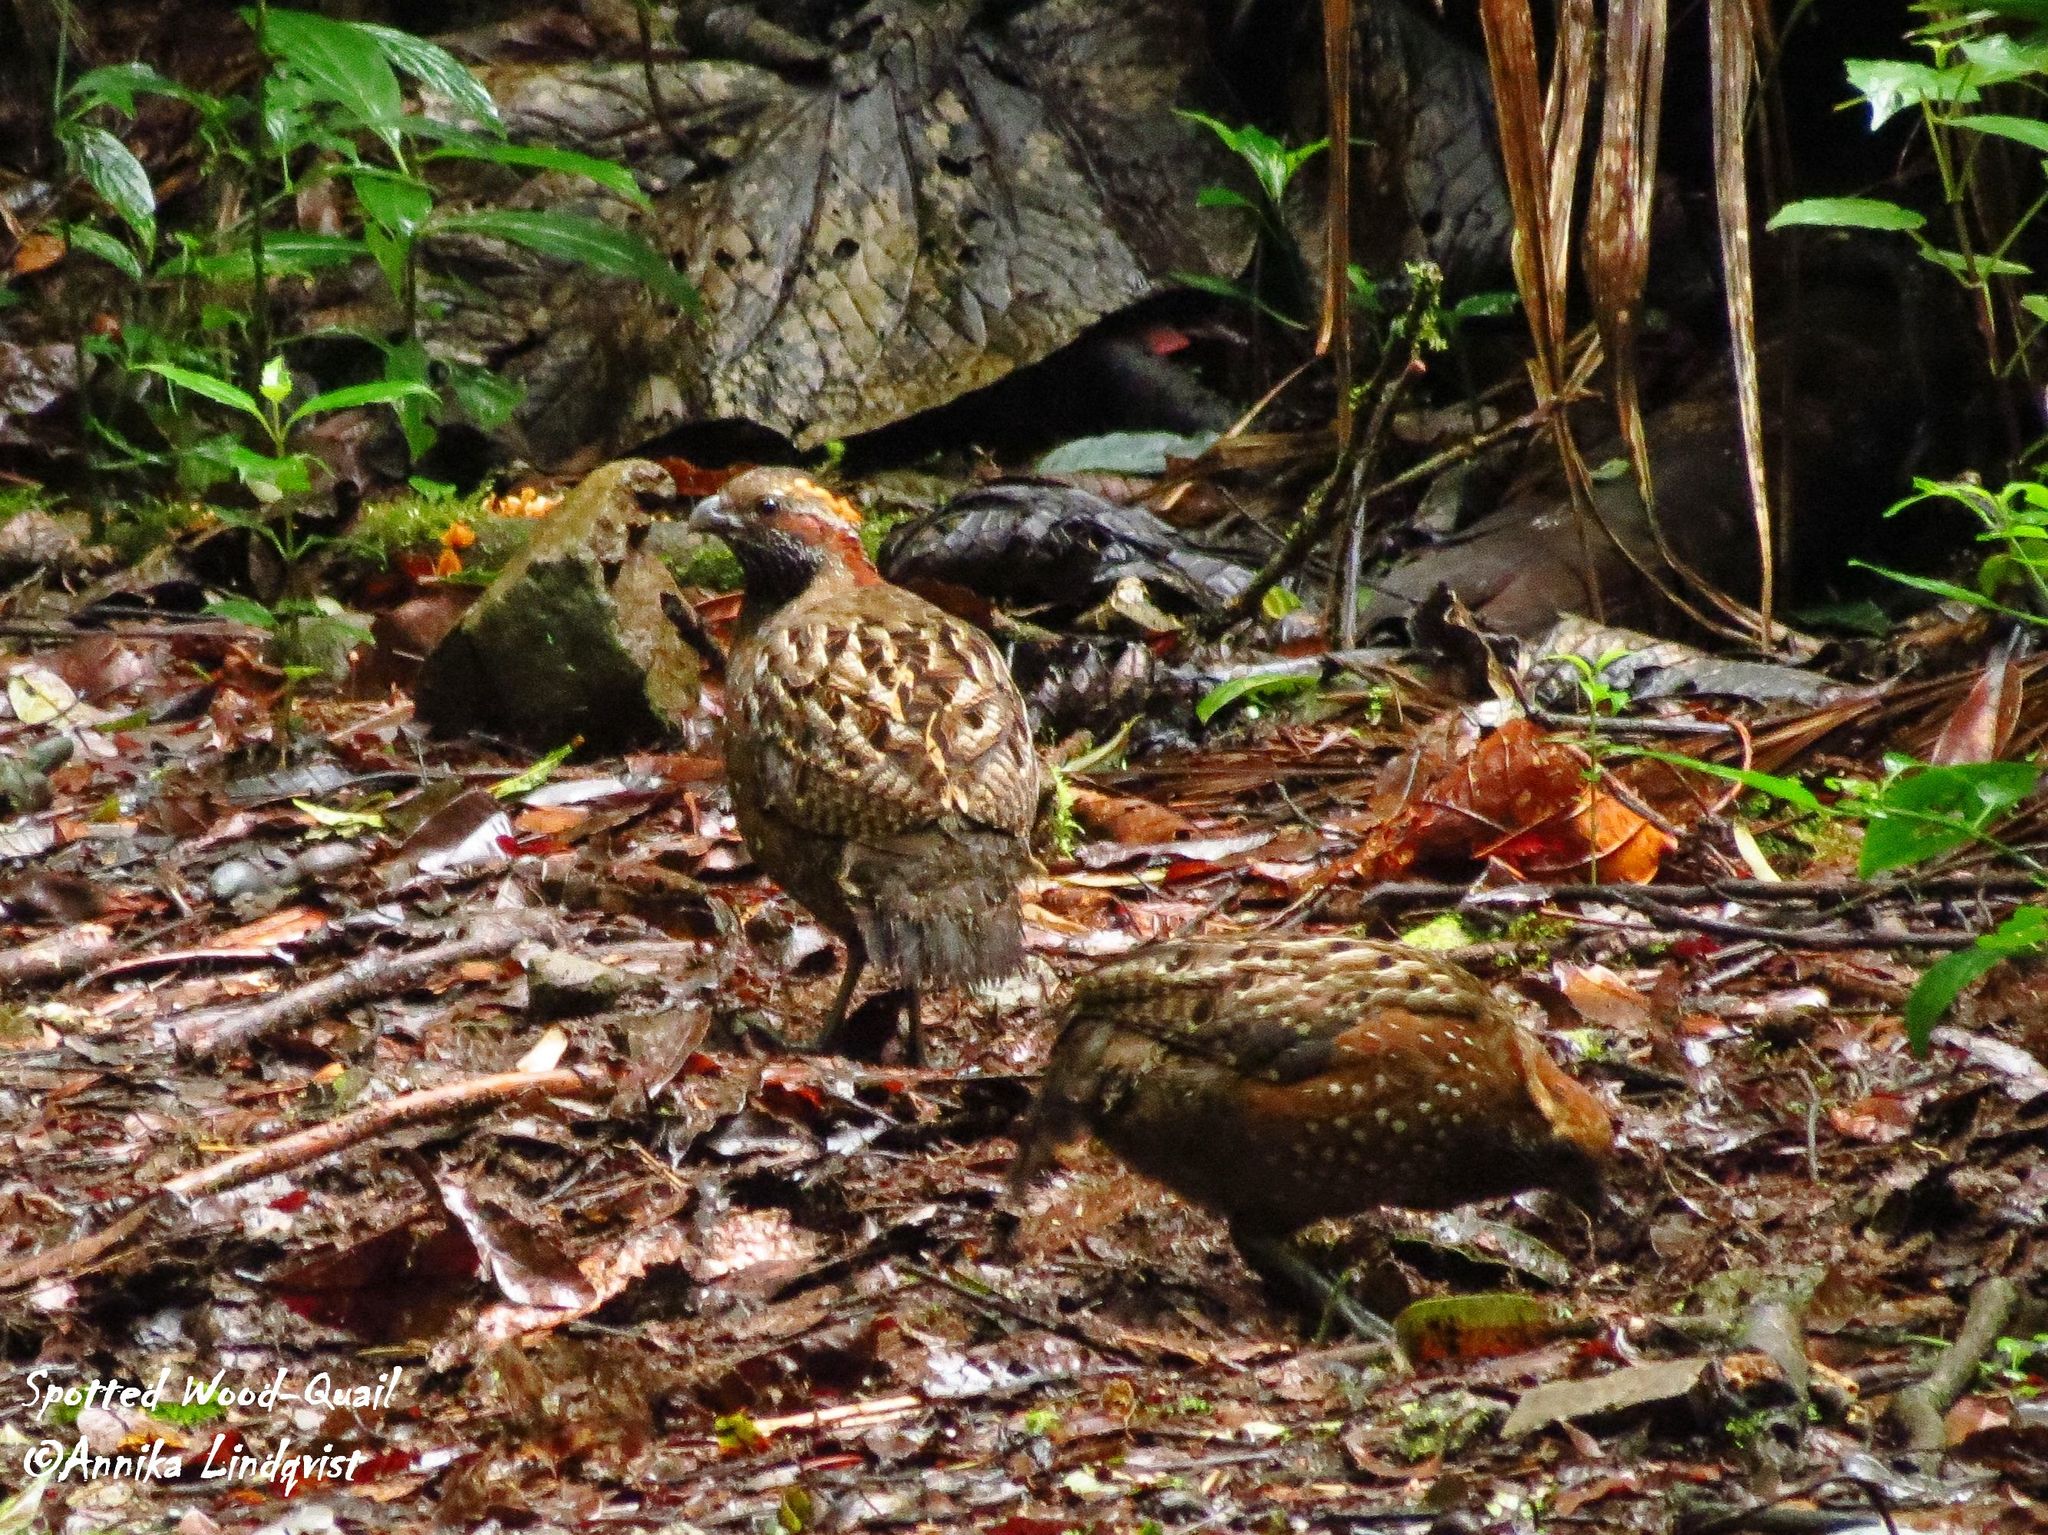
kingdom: Animalia
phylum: Chordata
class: Aves
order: Galliformes
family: Odontophoridae
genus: Odontophorus
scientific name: Odontophorus guttatus
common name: Spotted wood-quail
